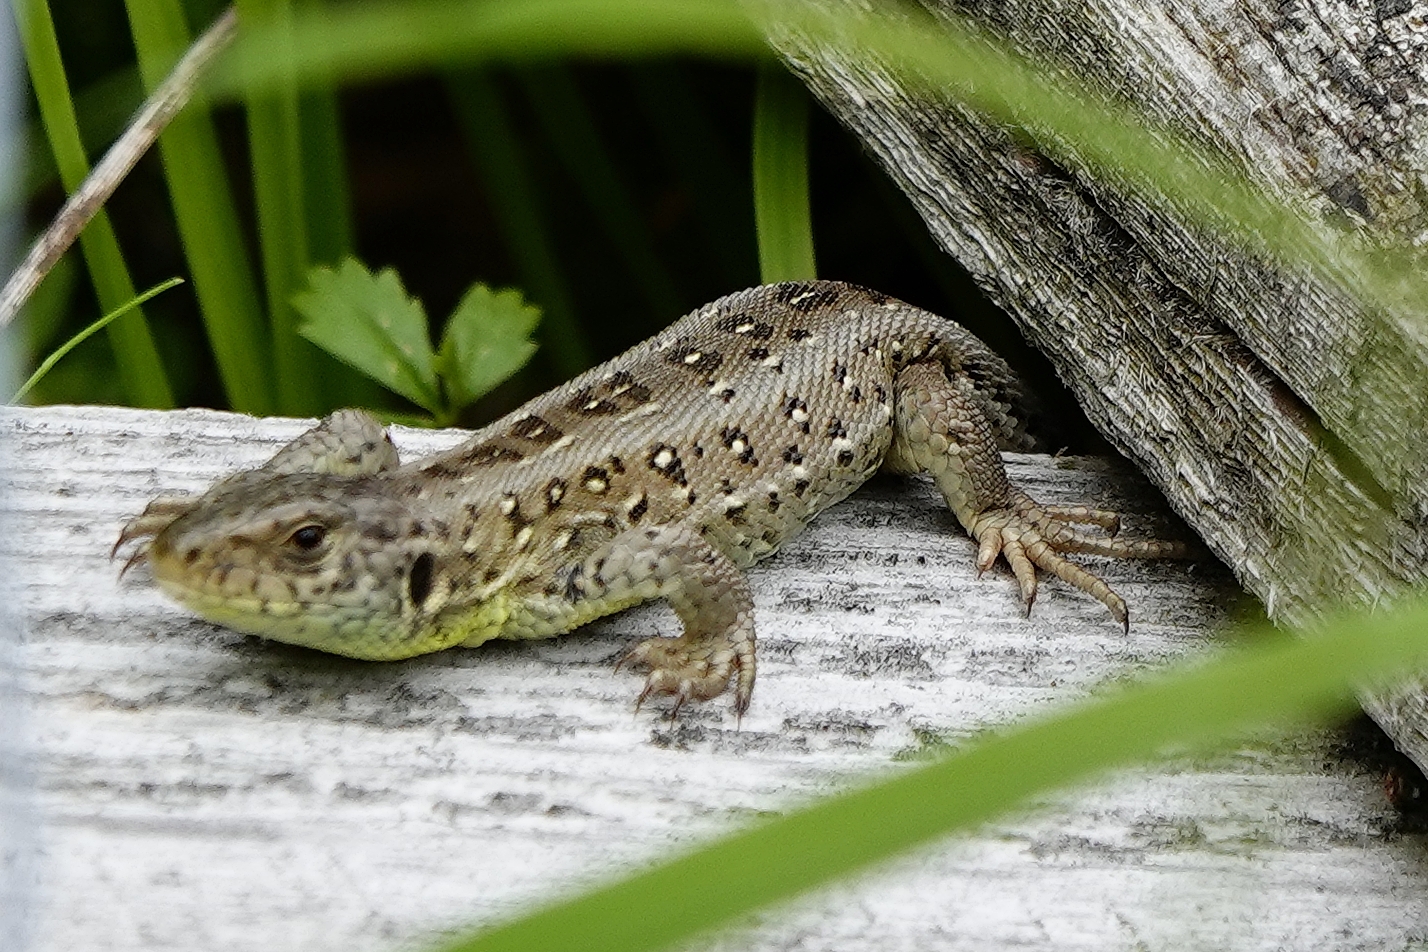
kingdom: Animalia
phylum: Chordata
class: Squamata
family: Lacertidae
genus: Lacerta
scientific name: Lacerta agilis
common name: Sand lizard
